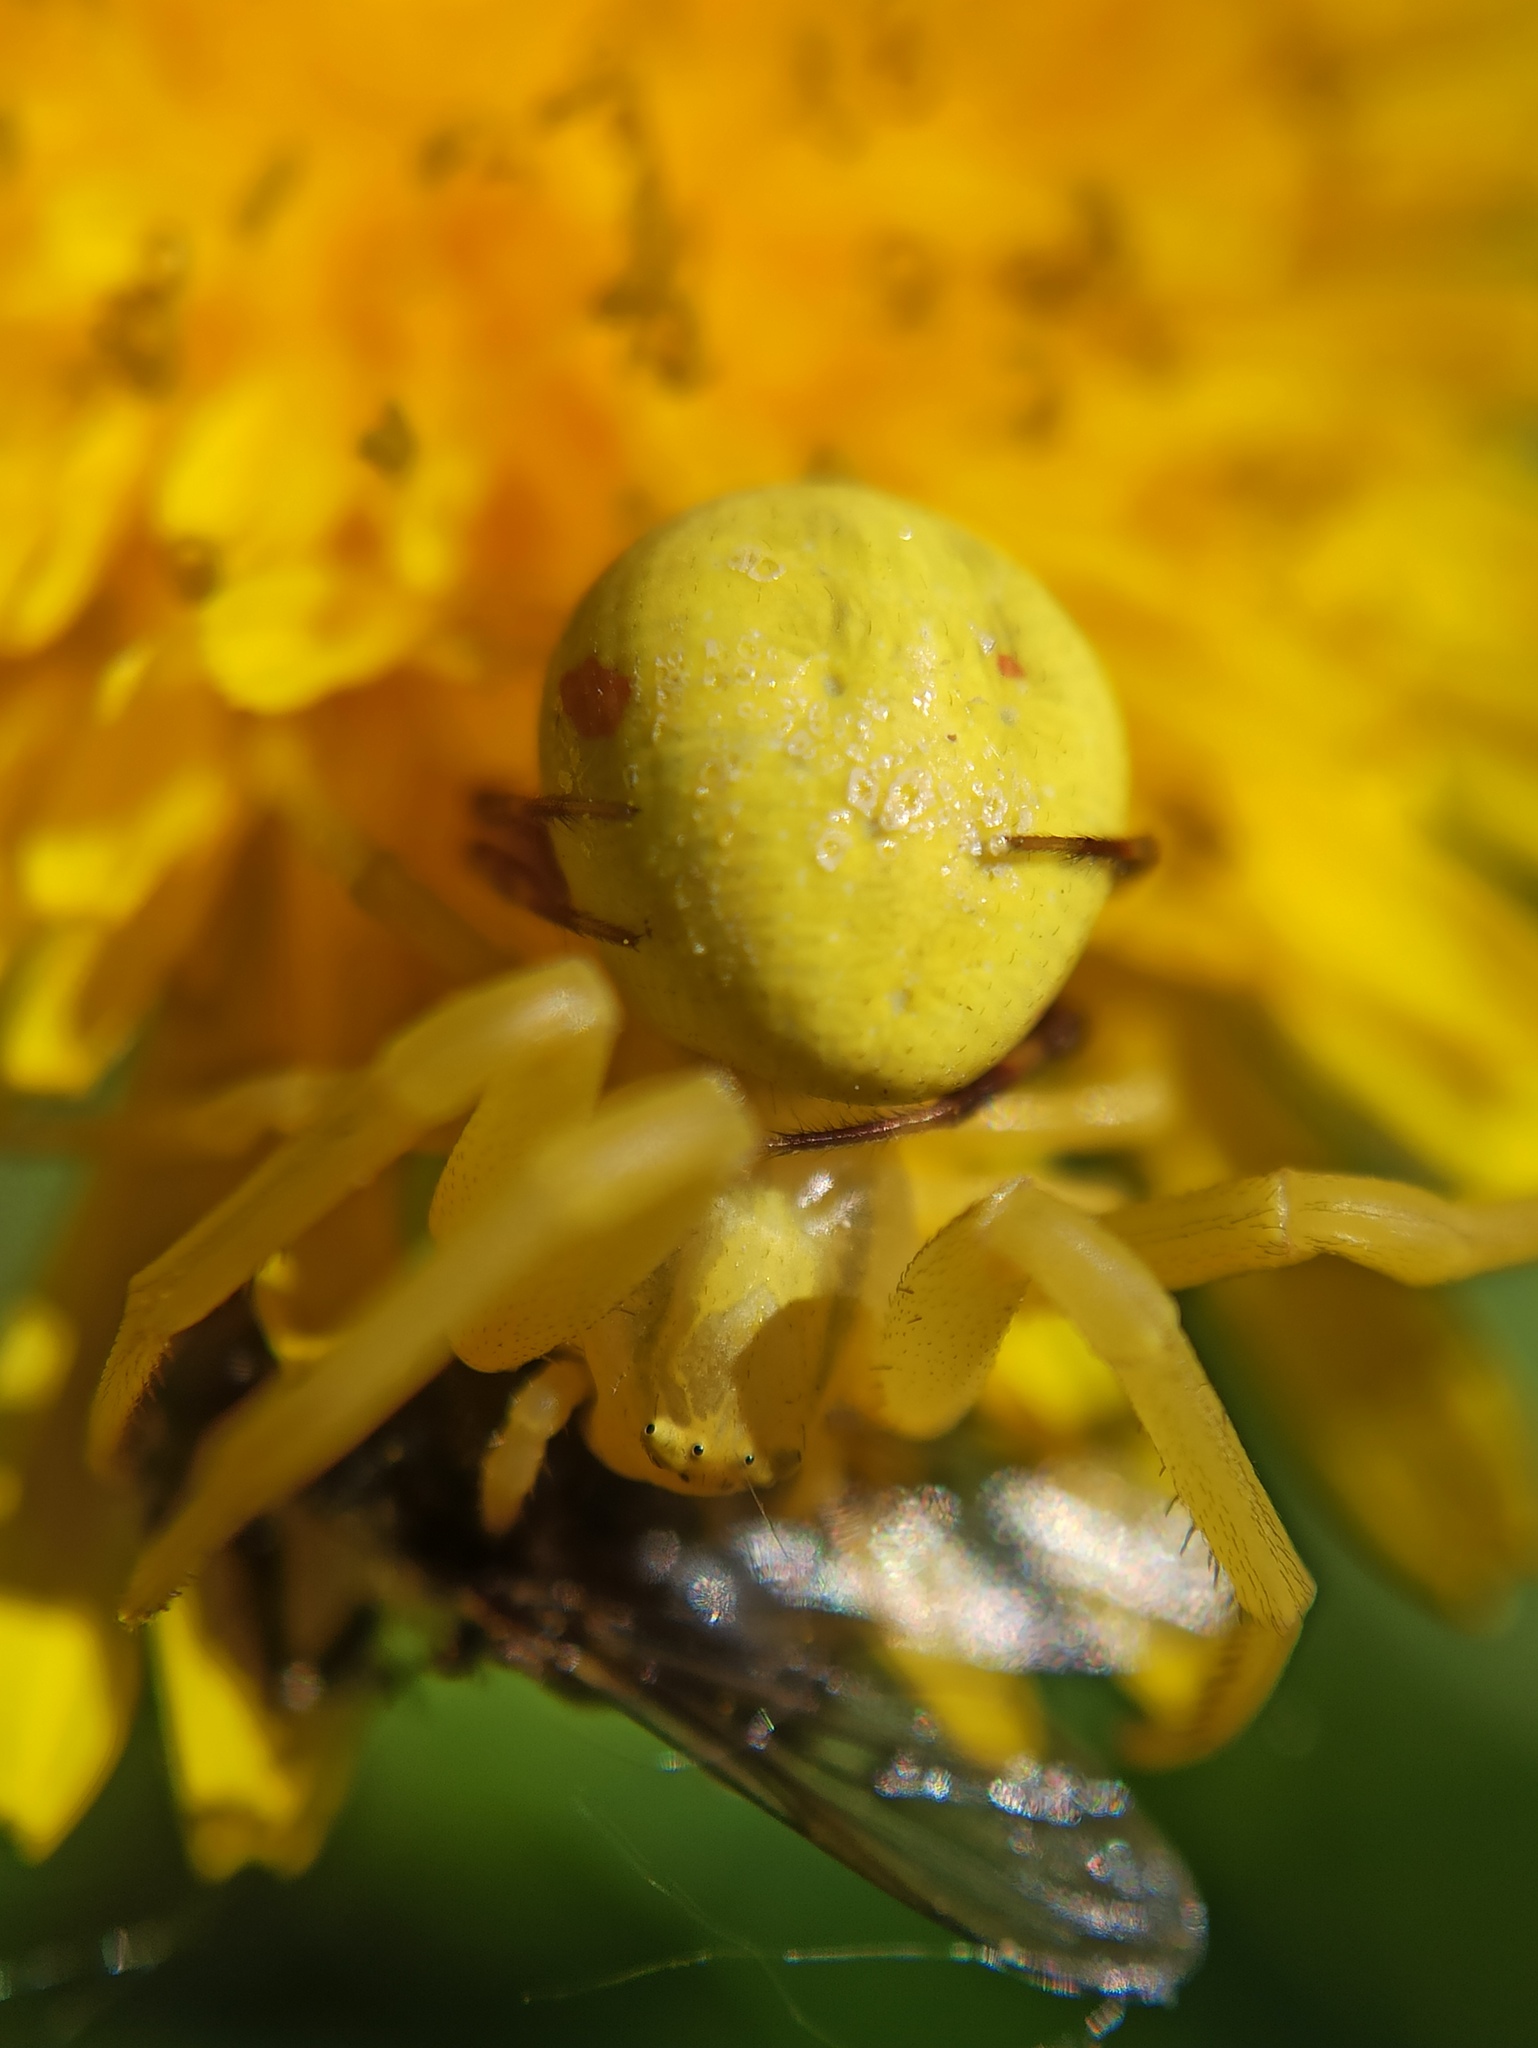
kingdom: Animalia
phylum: Arthropoda
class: Arachnida
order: Araneae
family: Thomisidae
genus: Misumena
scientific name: Misumena vatia
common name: Goldenrod crab spider
